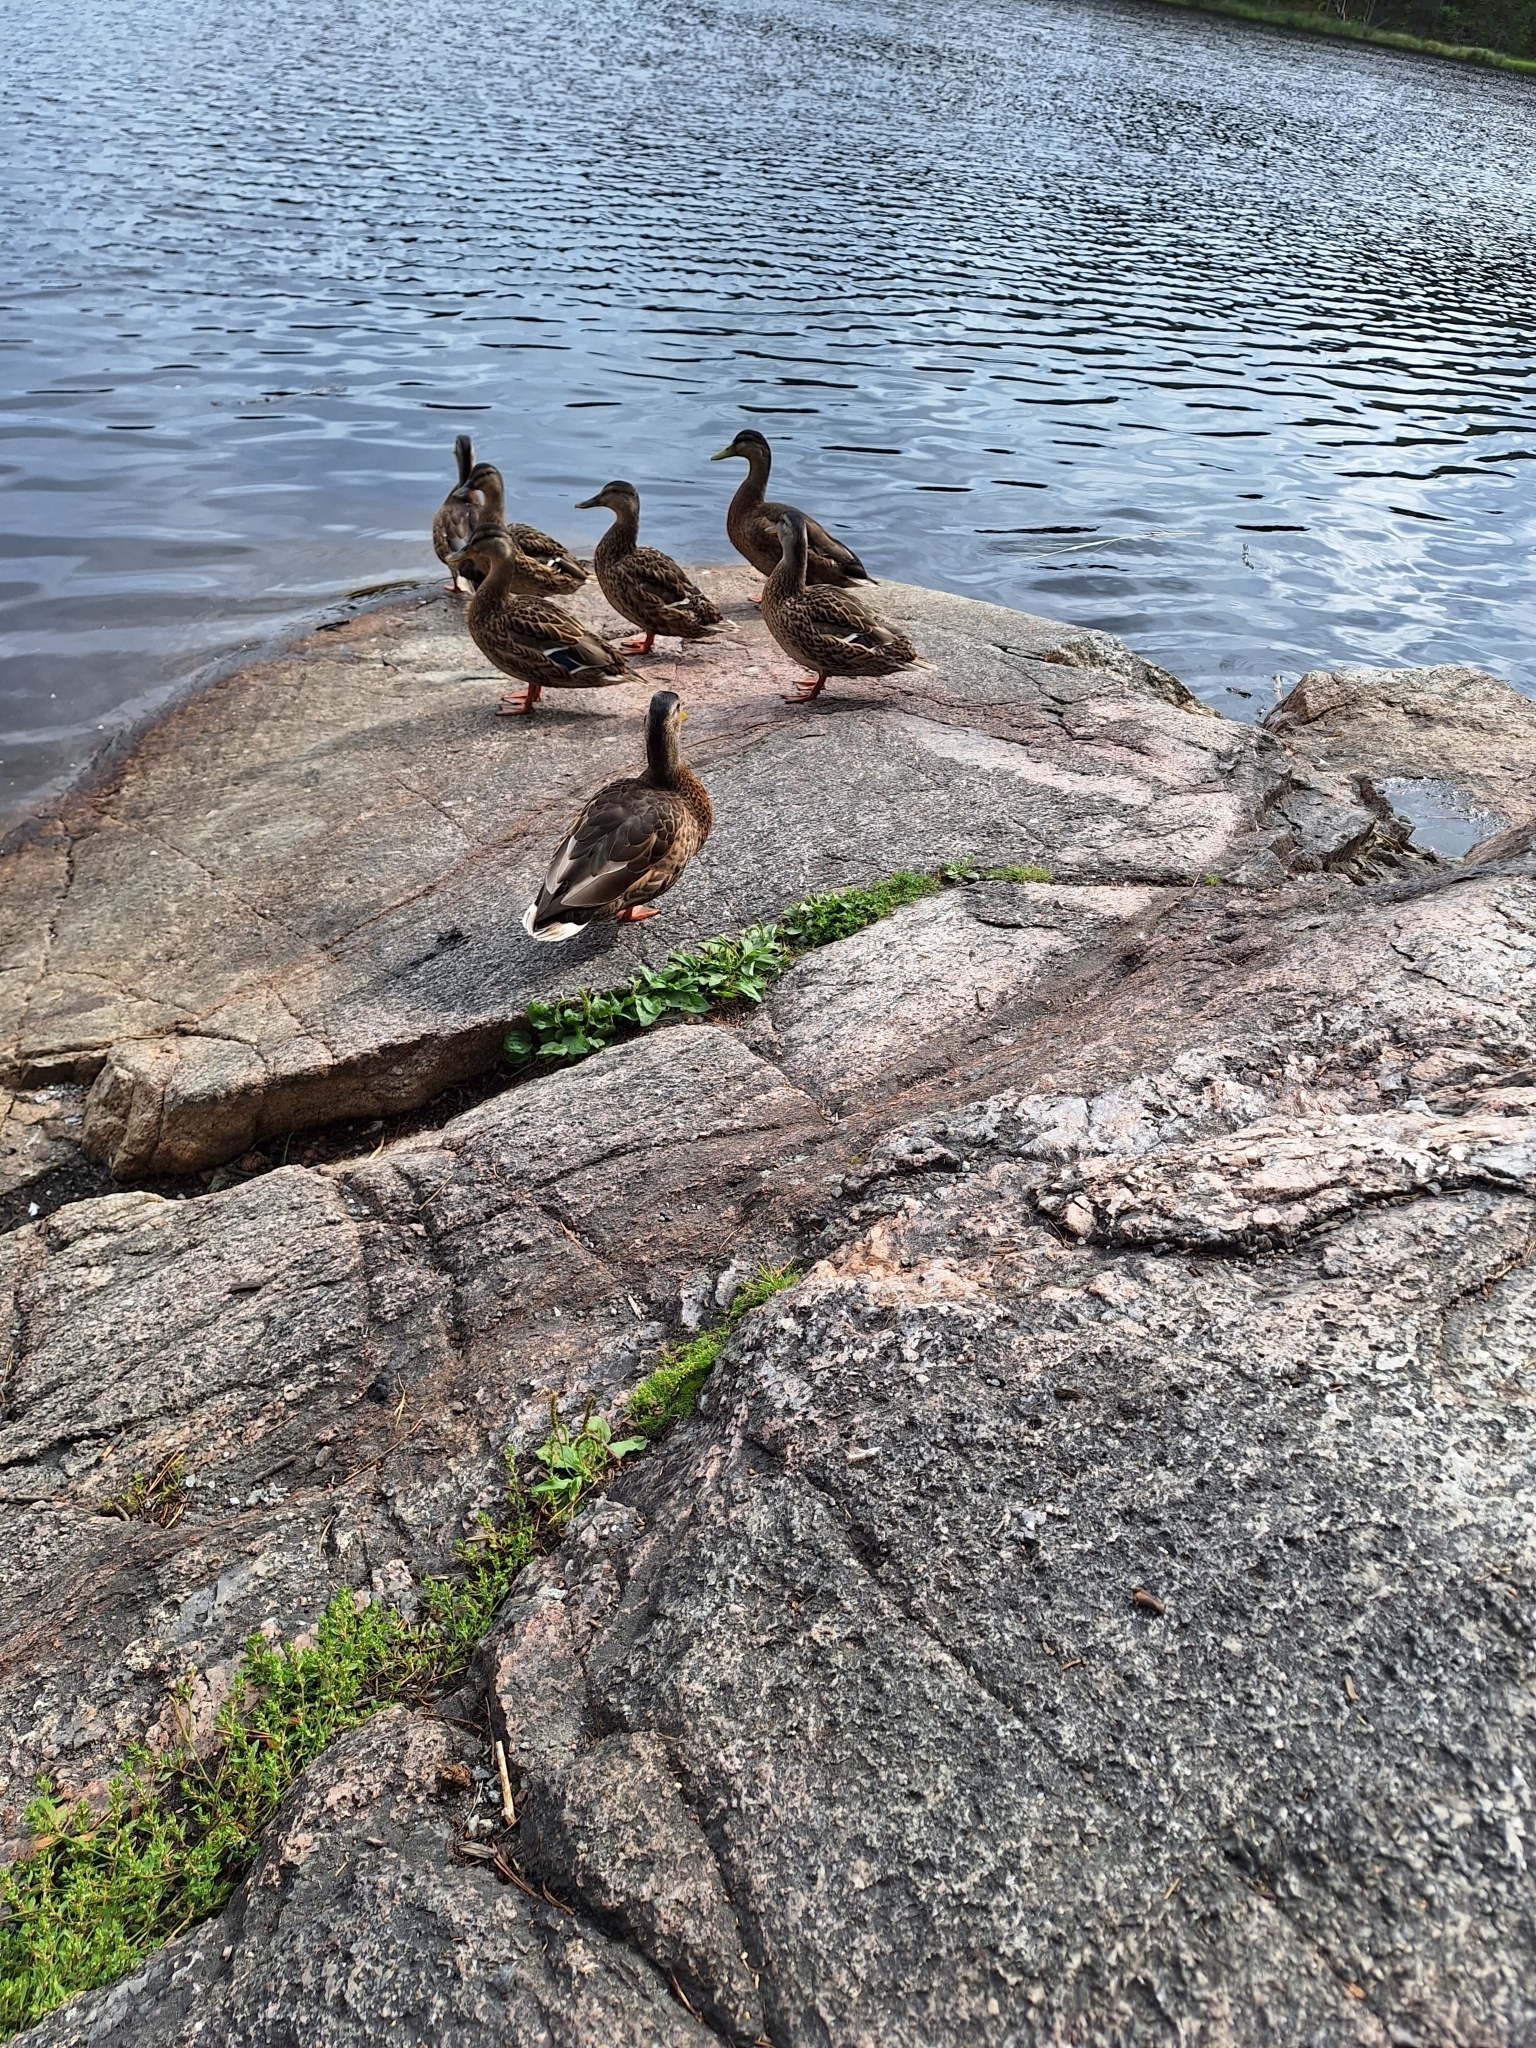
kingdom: Animalia
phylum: Chordata
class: Aves
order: Anseriformes
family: Anatidae
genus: Anas
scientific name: Anas platyrhynchos
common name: Mallard
